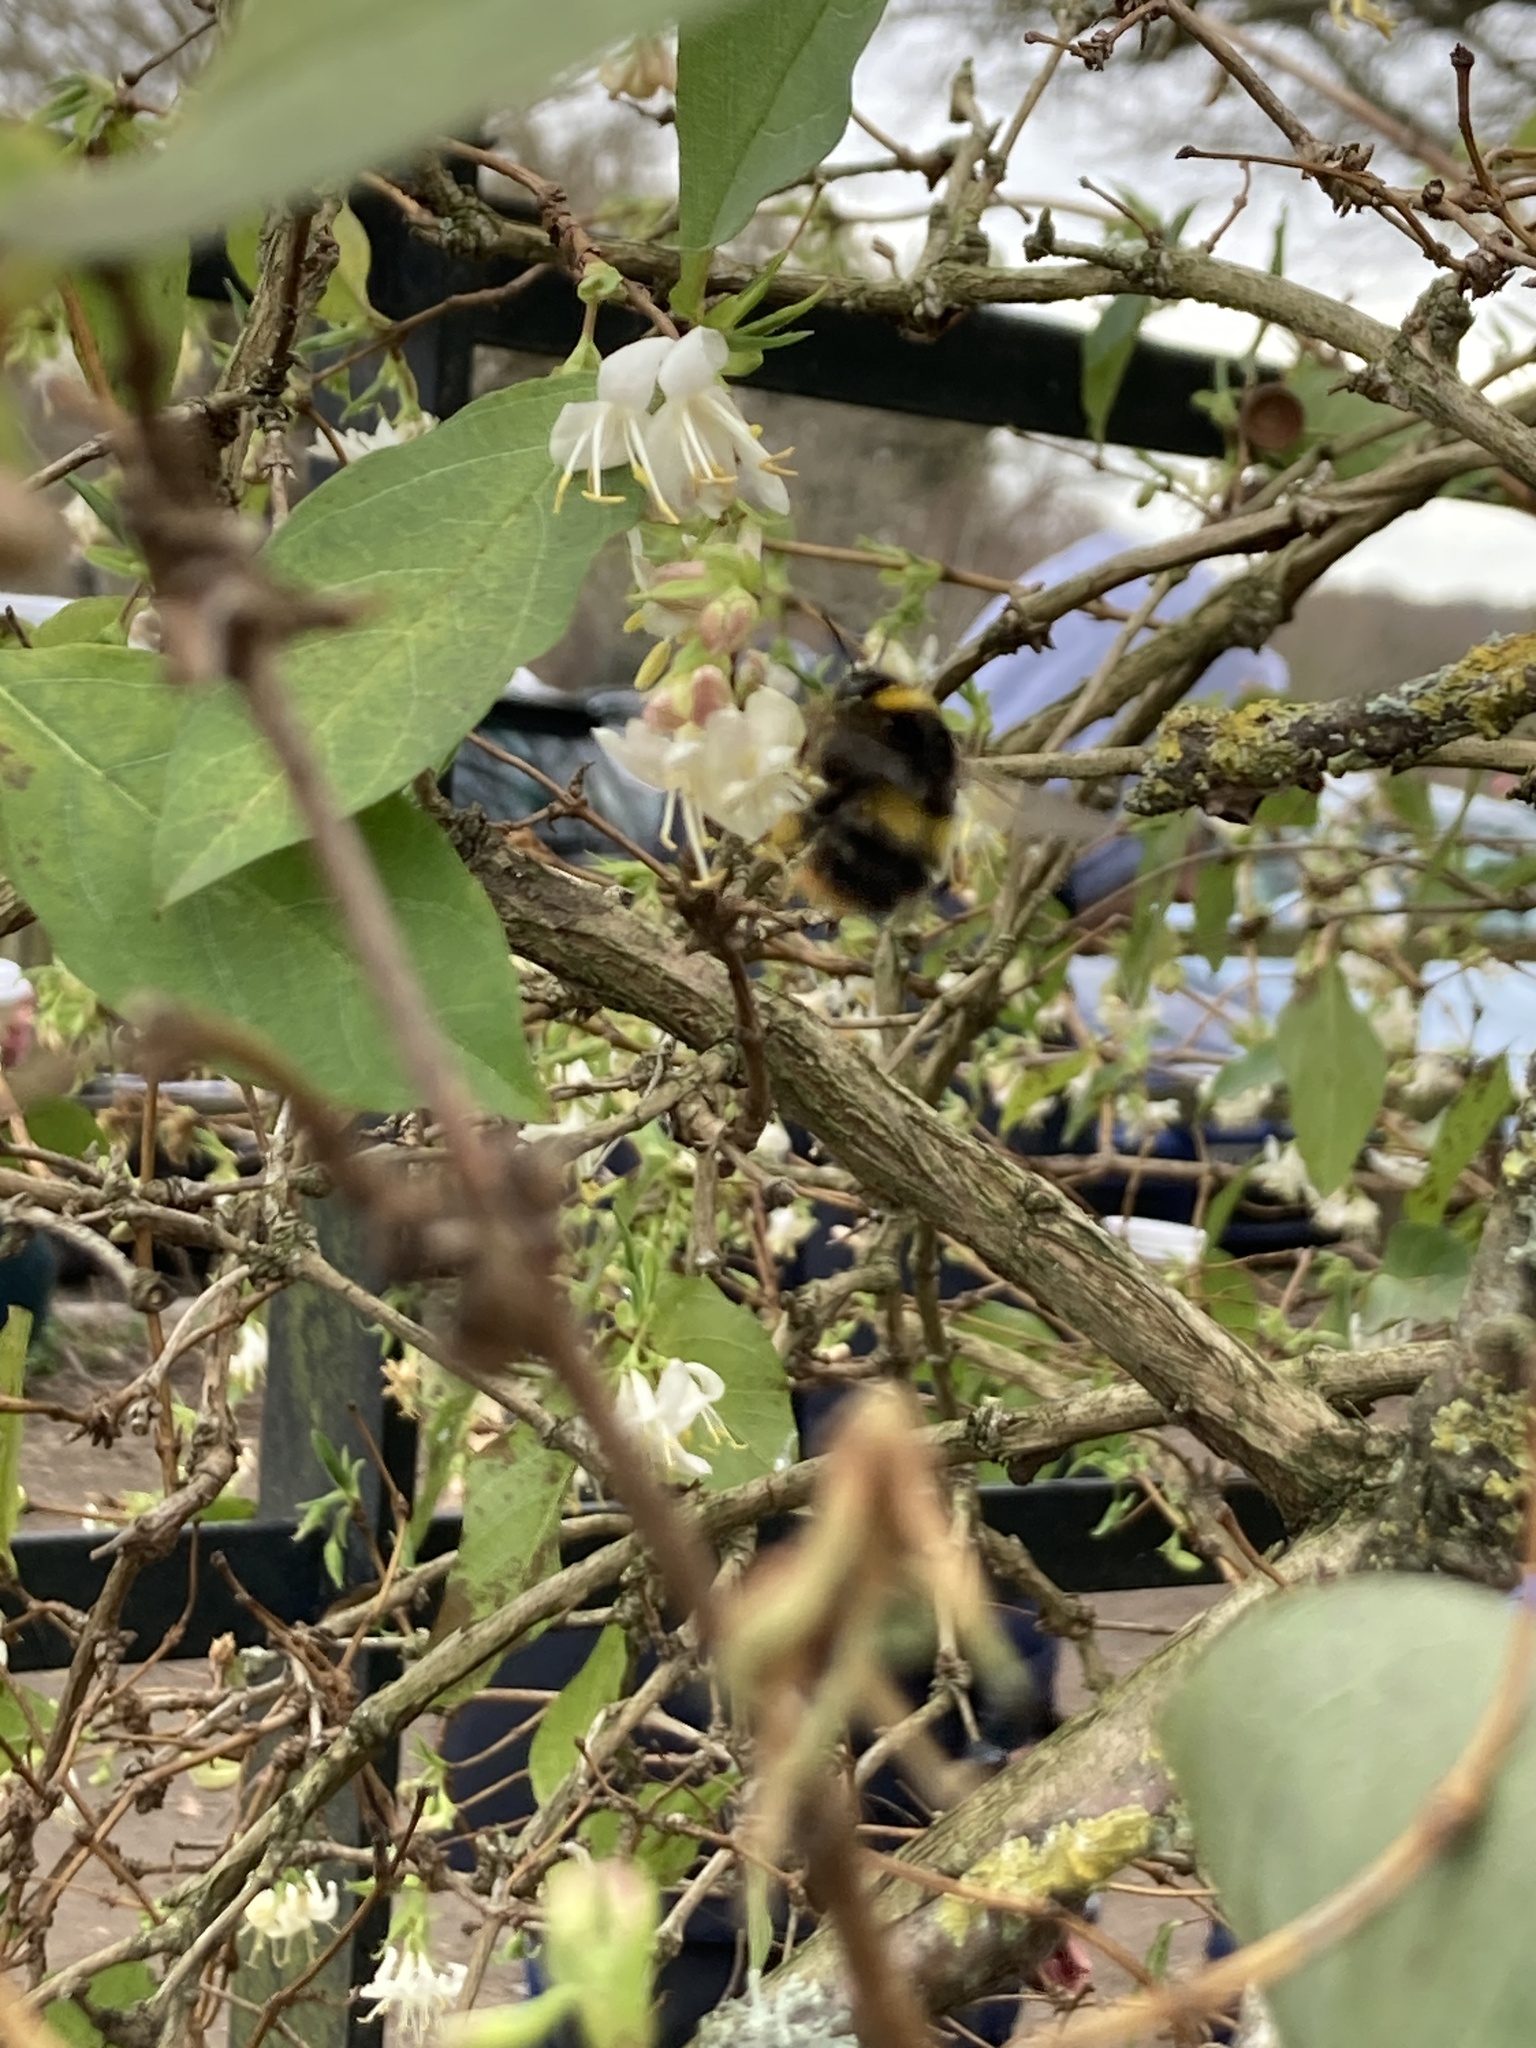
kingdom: Animalia
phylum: Arthropoda
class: Insecta
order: Hymenoptera
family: Apidae
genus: Bombus
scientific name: Bombus pratorum
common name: Early humble-bee
